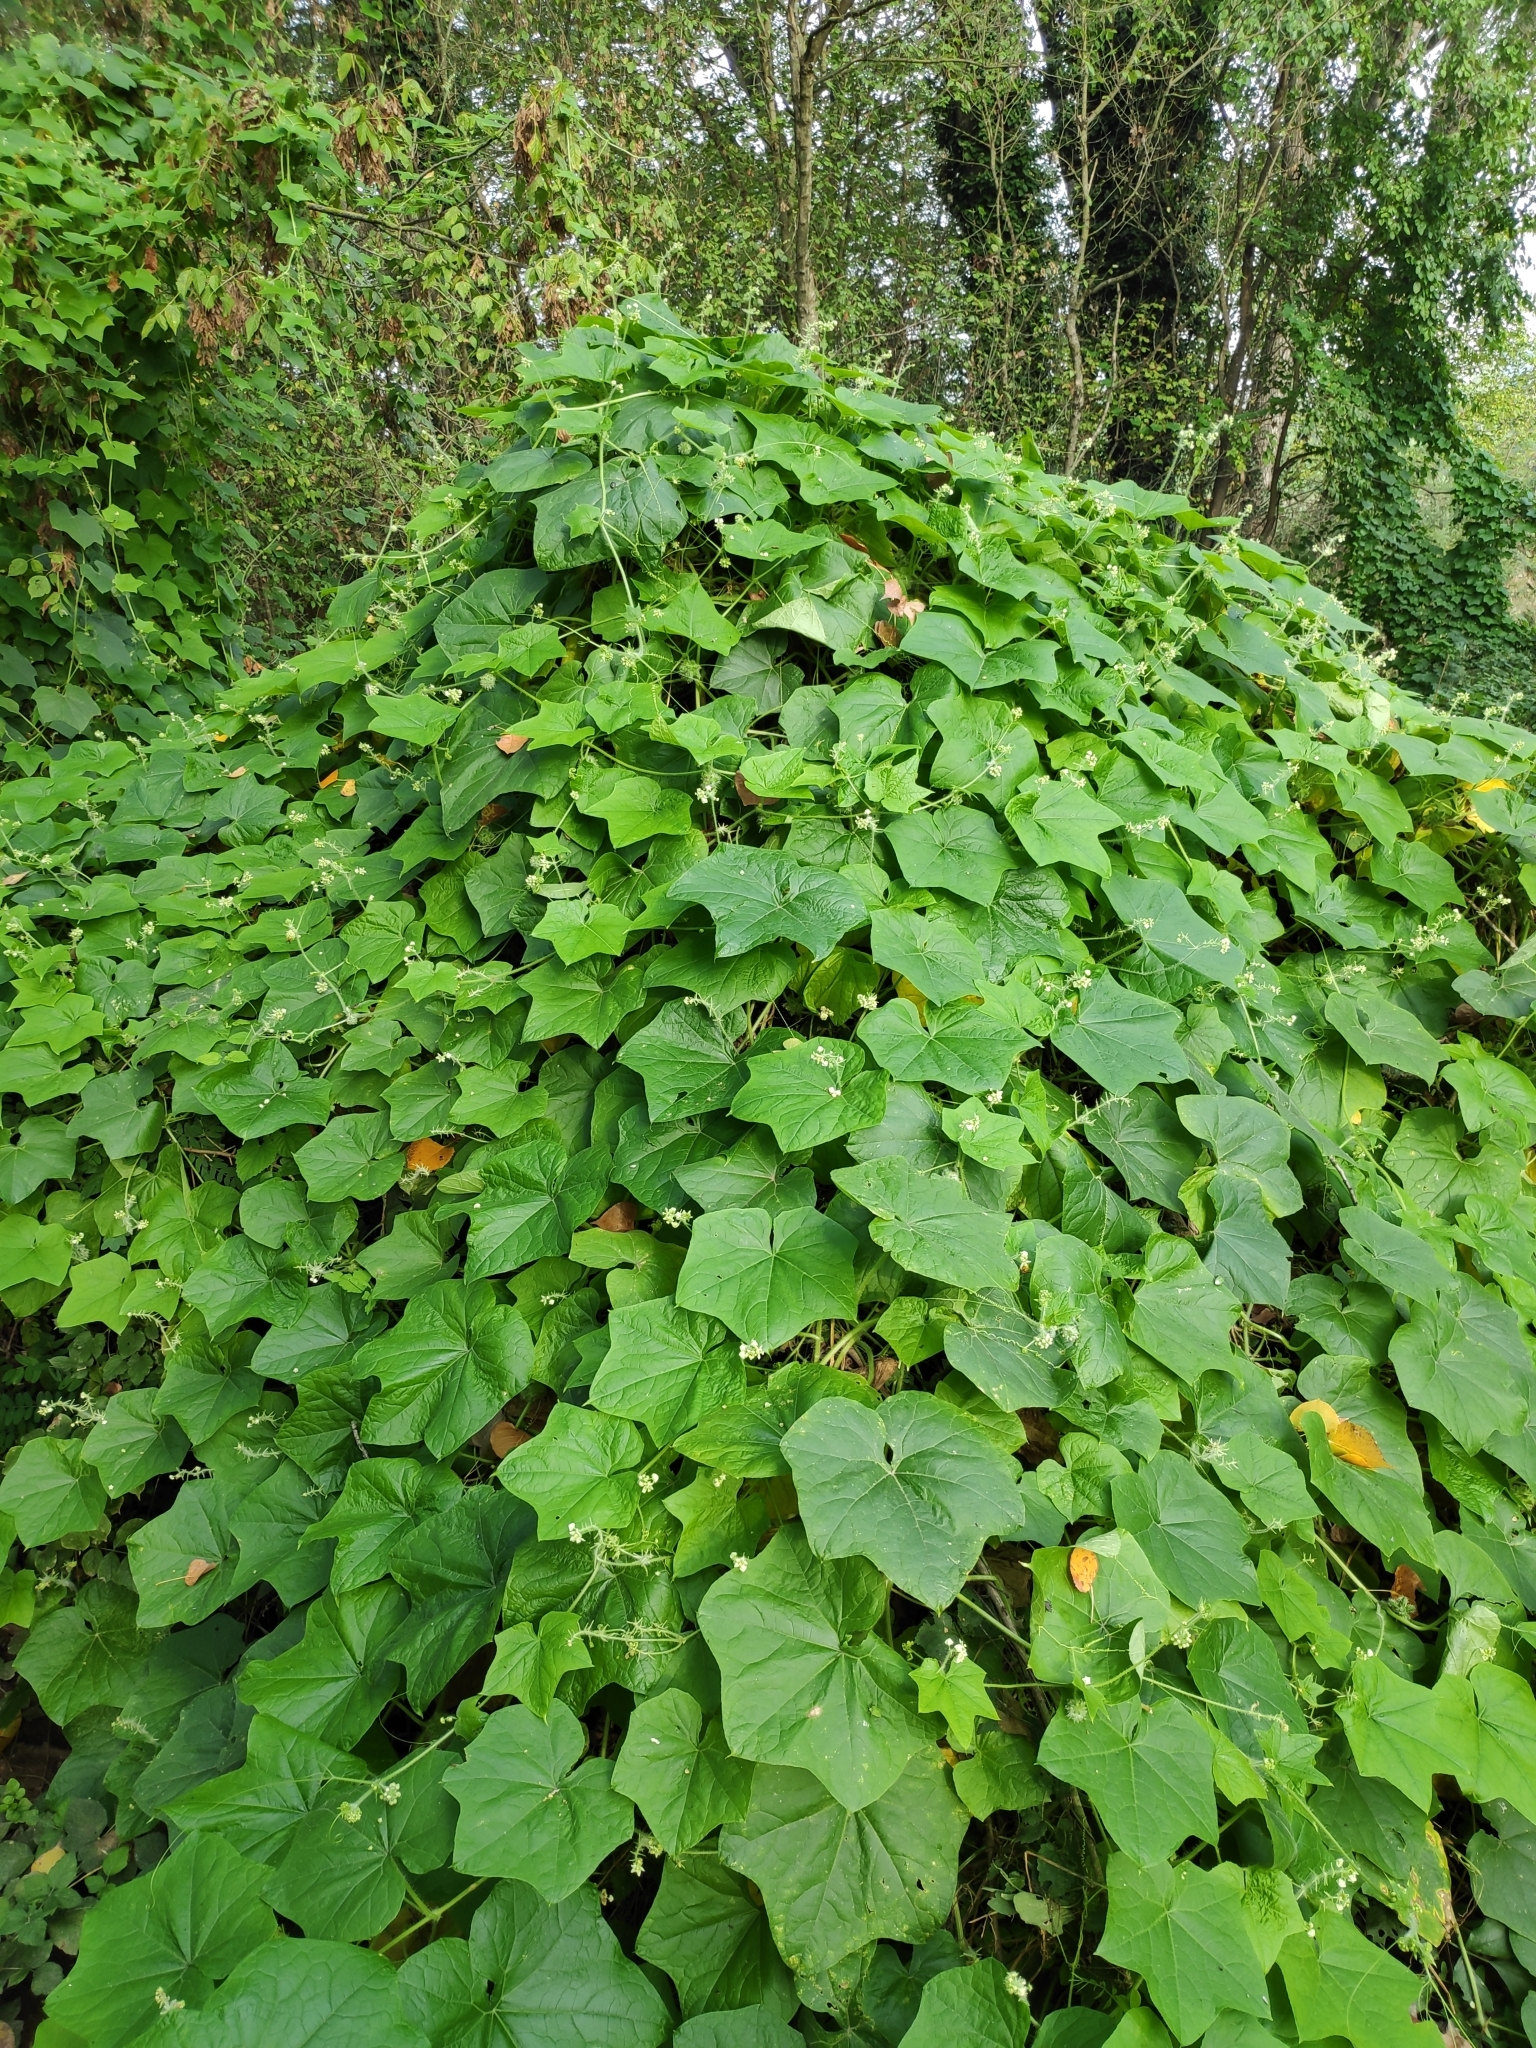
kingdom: Plantae
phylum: Tracheophyta
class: Magnoliopsida
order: Cucurbitales
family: Cucurbitaceae
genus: Sicyos
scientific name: Sicyos angulatus
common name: Angled burr cucumber
